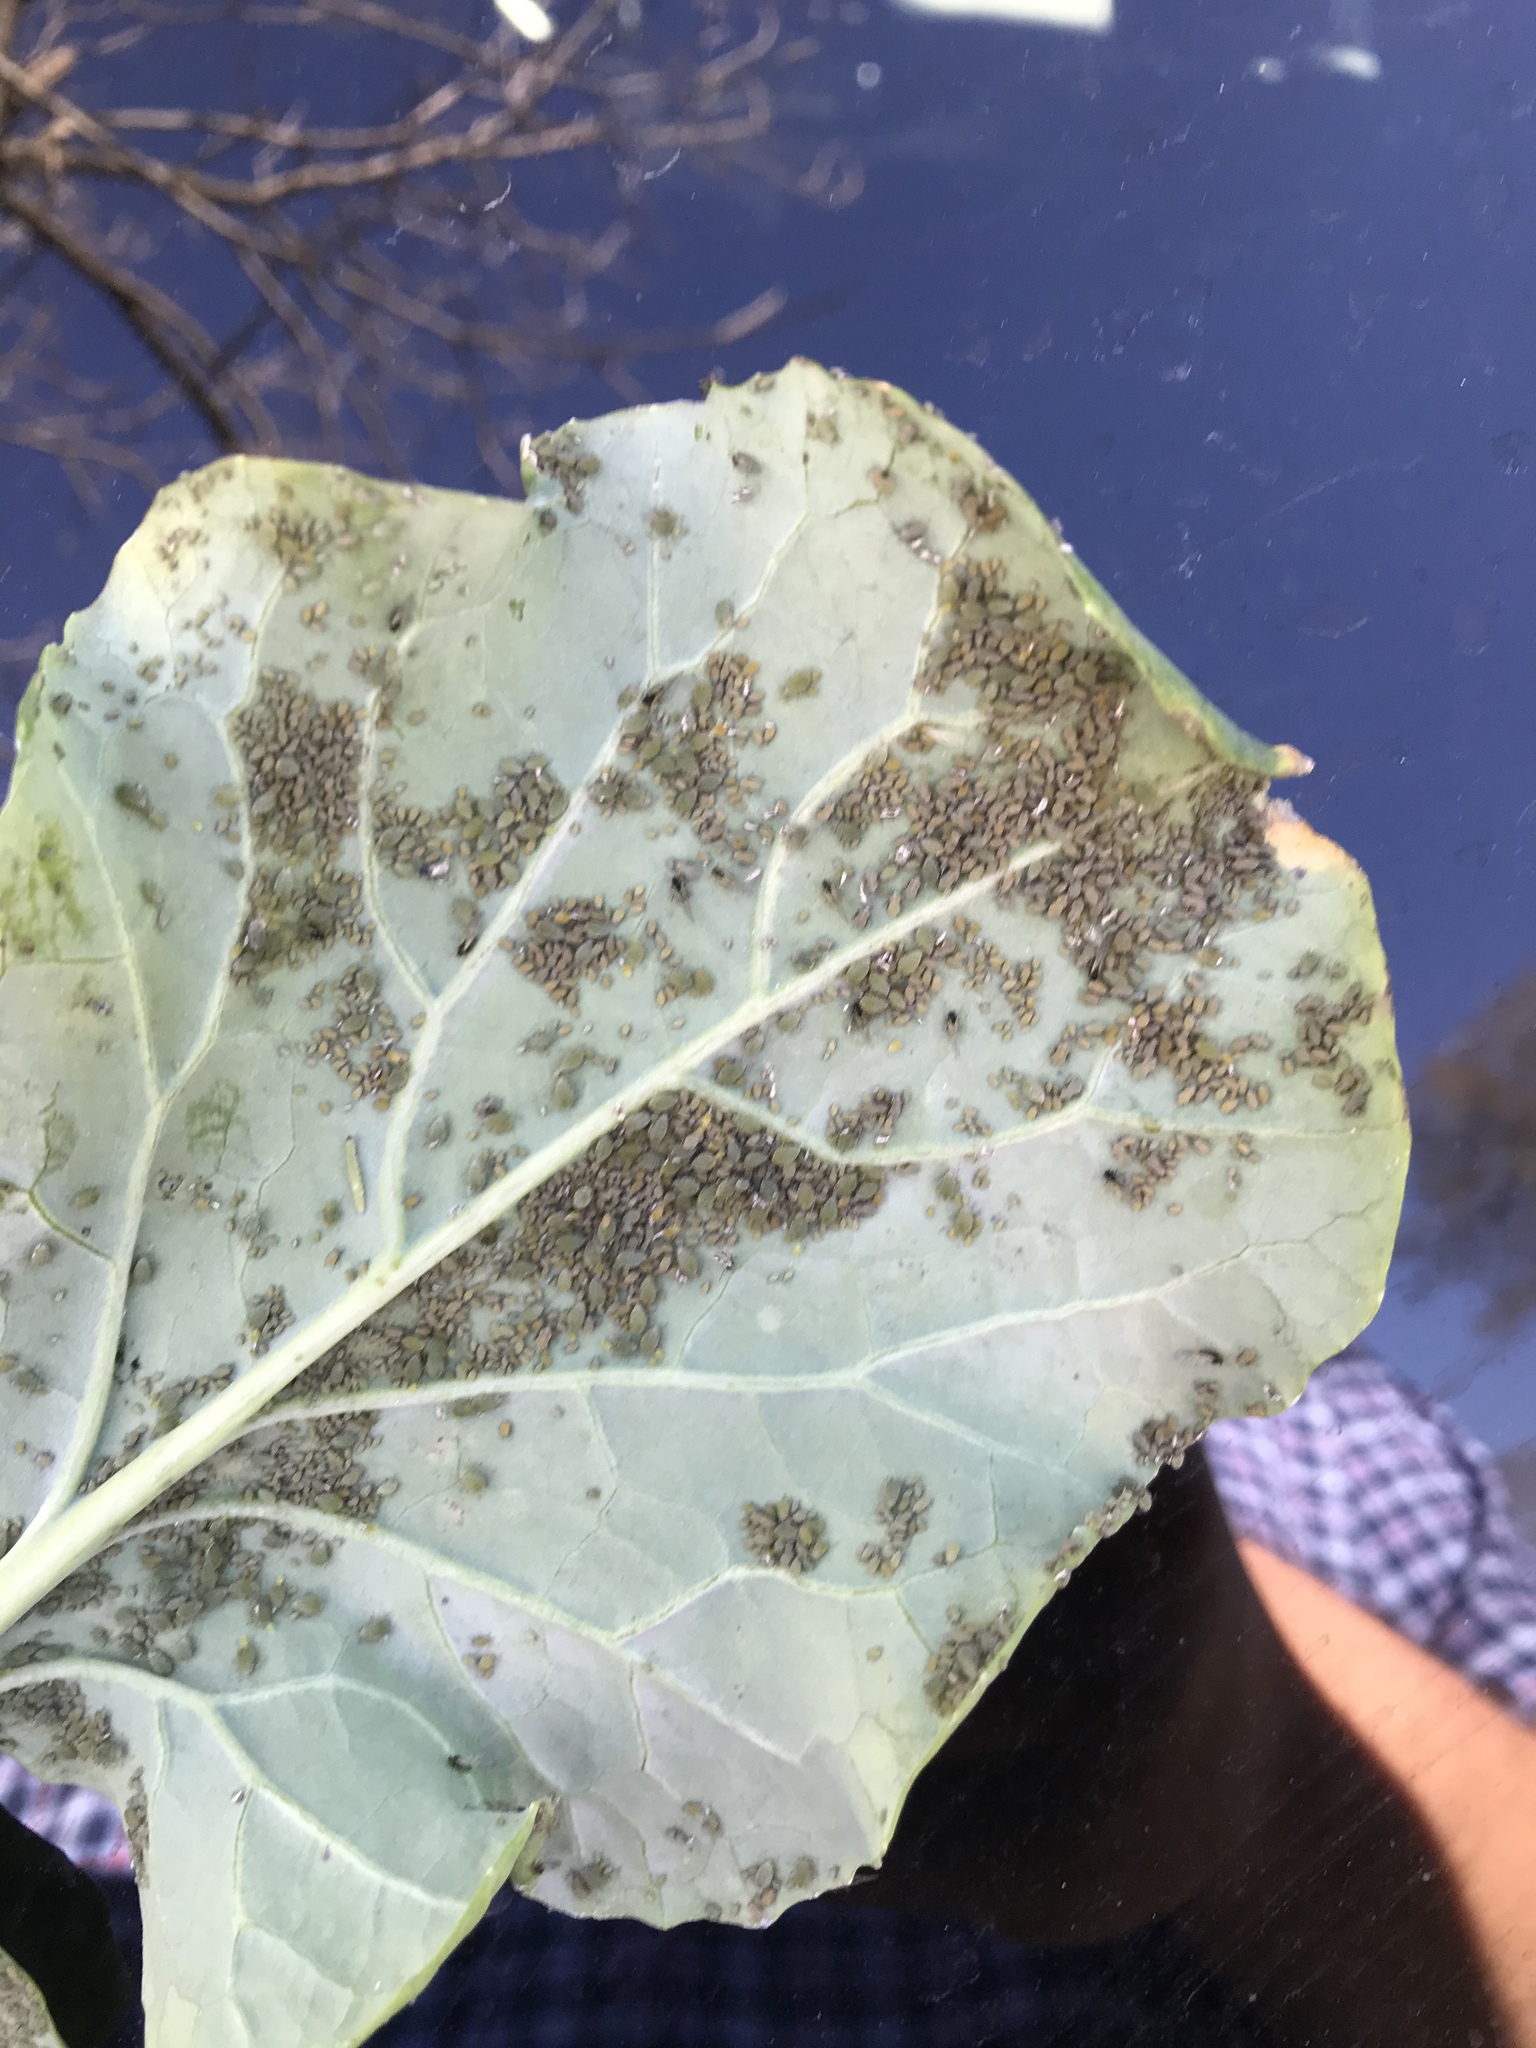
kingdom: Animalia
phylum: Arthropoda
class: Insecta
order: Hemiptera
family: Aphididae
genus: Brevicoryne
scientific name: Brevicoryne brassicae
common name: Cabbage aphid
